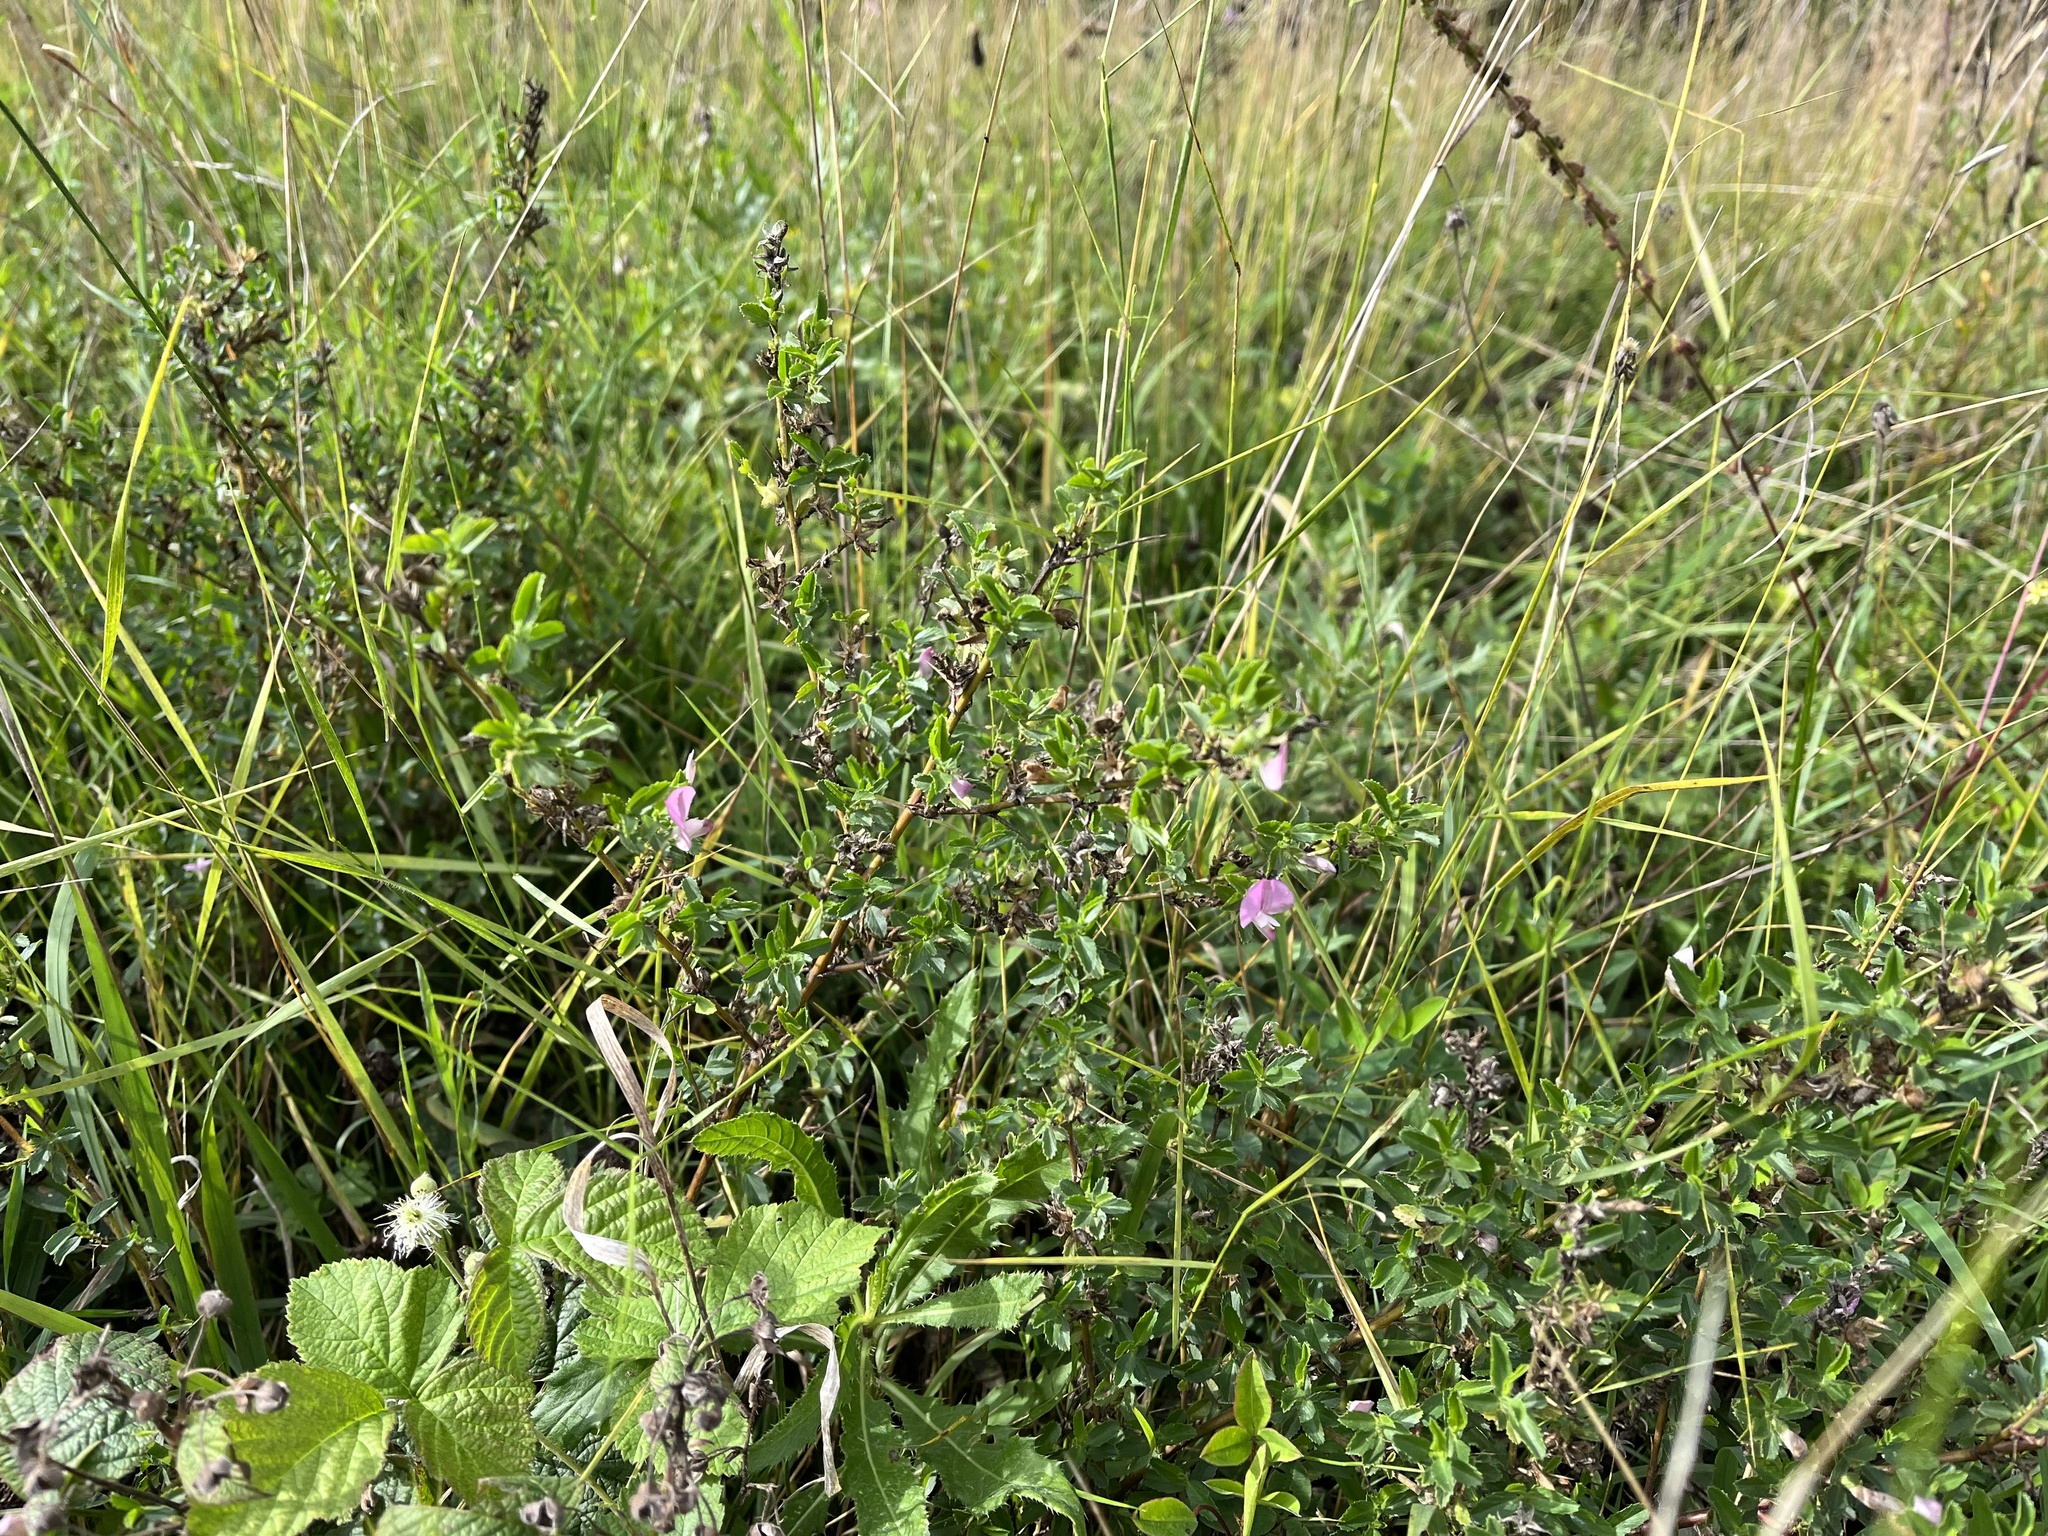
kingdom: Plantae
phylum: Tracheophyta
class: Magnoliopsida
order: Fabales
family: Fabaceae
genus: Ononis
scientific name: Ononis spinosa
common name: Spiny restharrow
